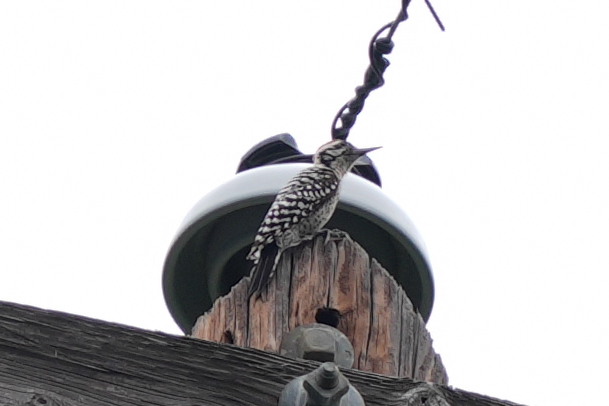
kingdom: Animalia
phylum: Chordata
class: Aves
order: Piciformes
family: Picidae
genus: Dryobates
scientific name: Dryobates scalaris
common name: Ladder-backed woodpecker
